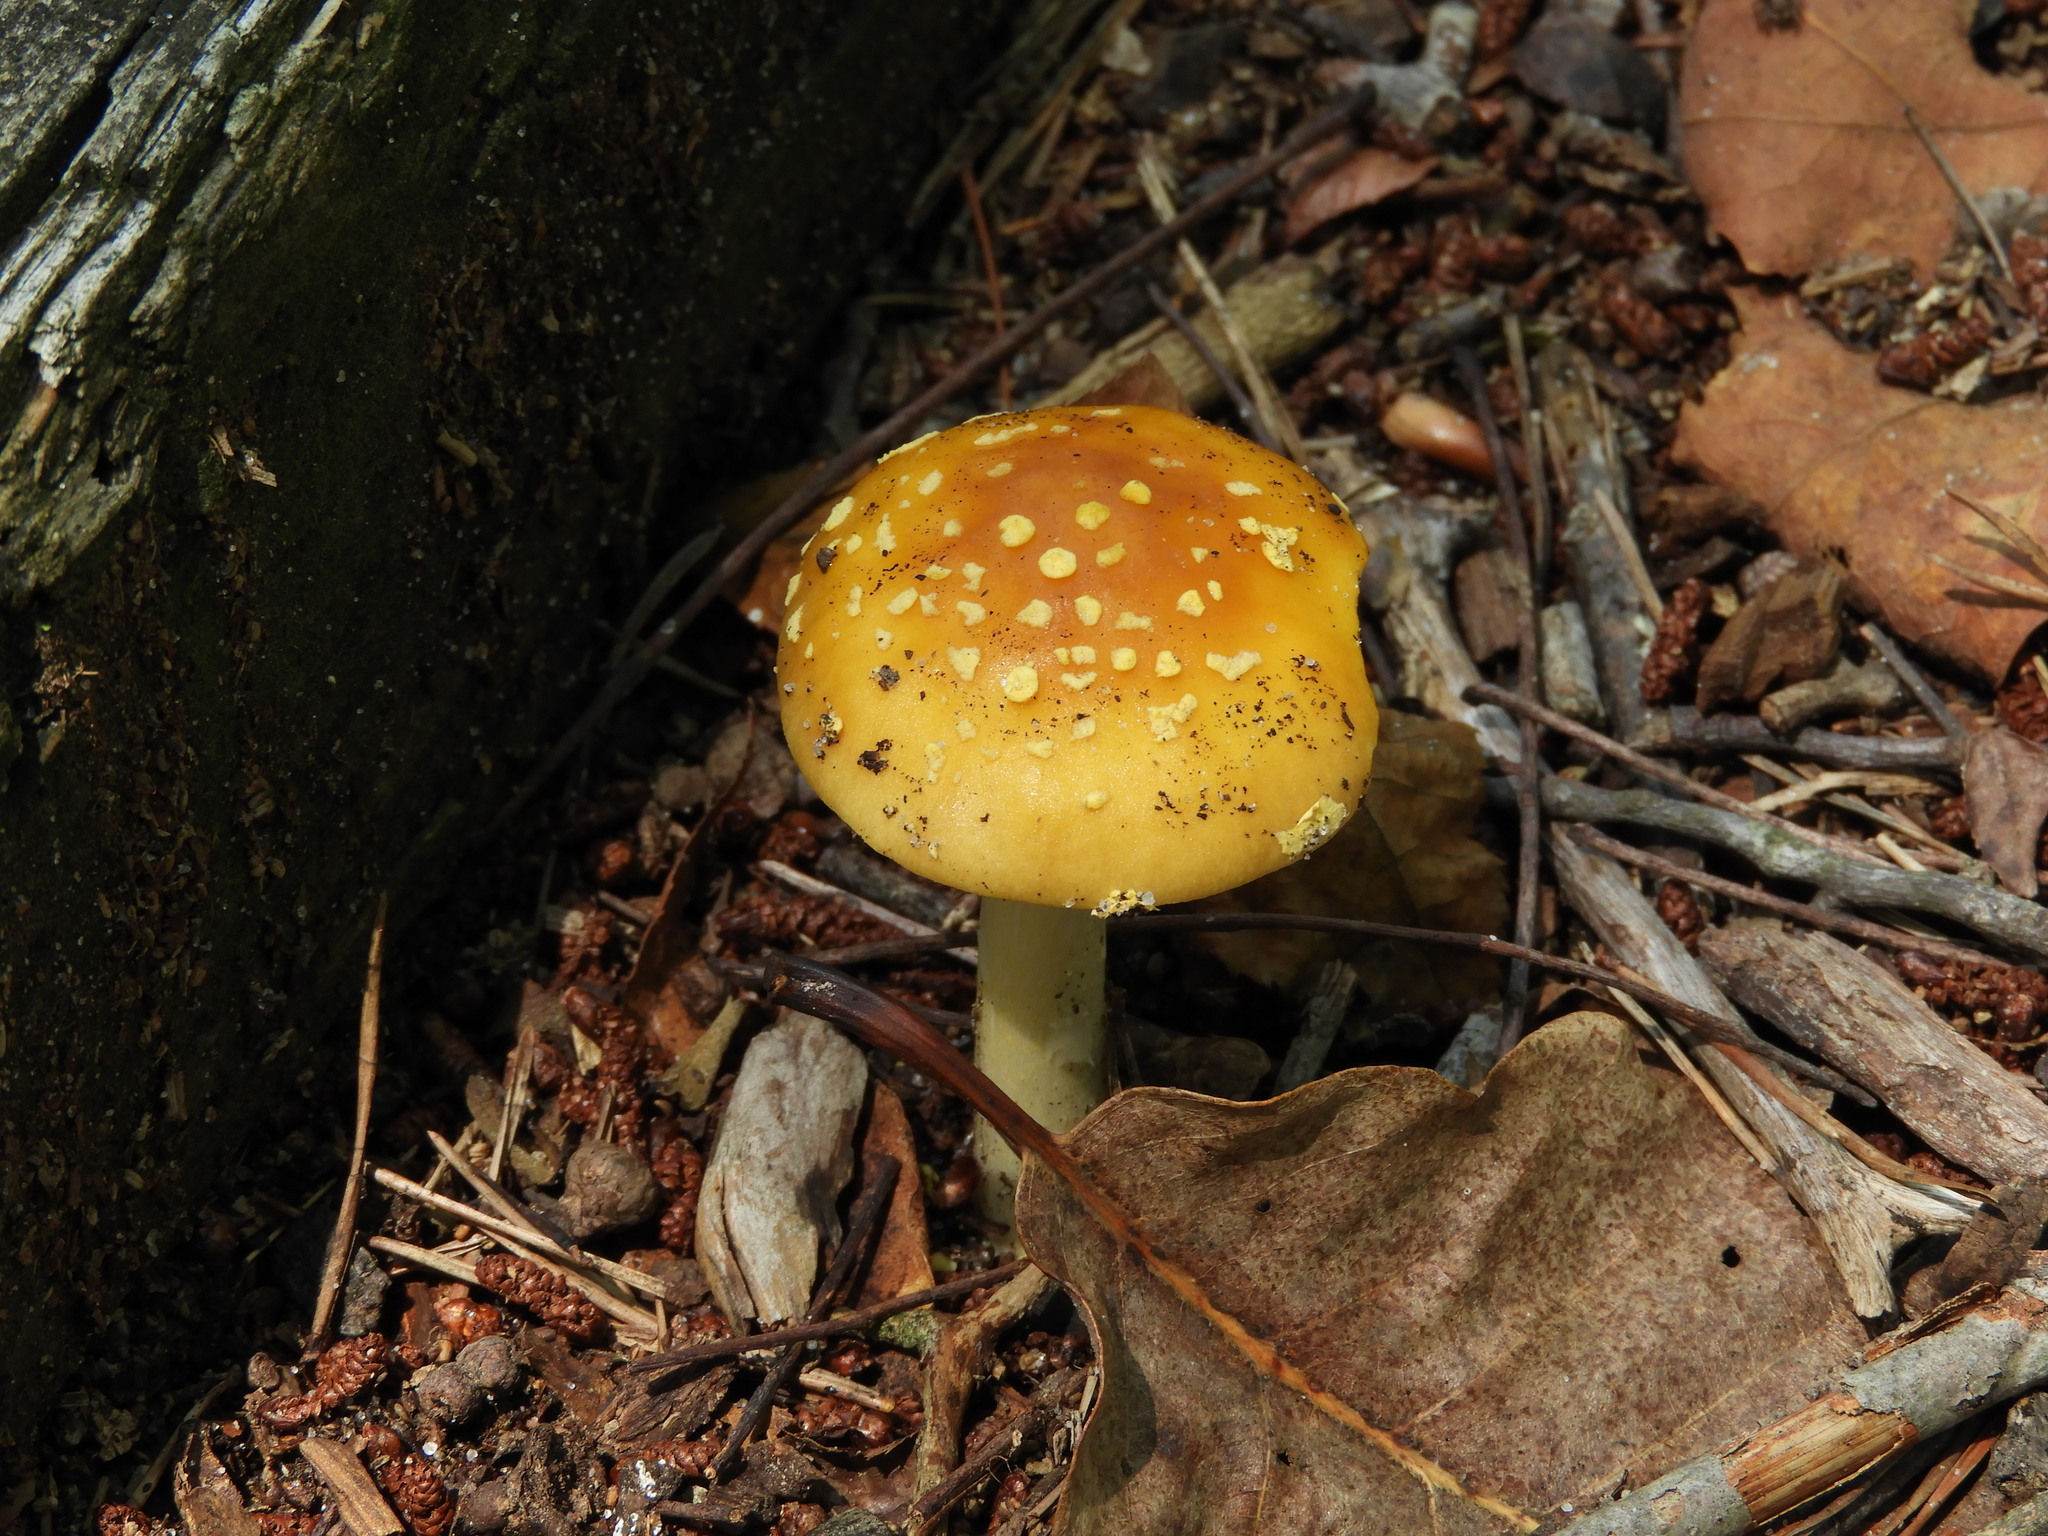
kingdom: Fungi
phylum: Basidiomycota
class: Agaricomycetes
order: Agaricales
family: Amanitaceae
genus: Amanita
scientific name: Amanita flavoconia
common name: Yellow patches
